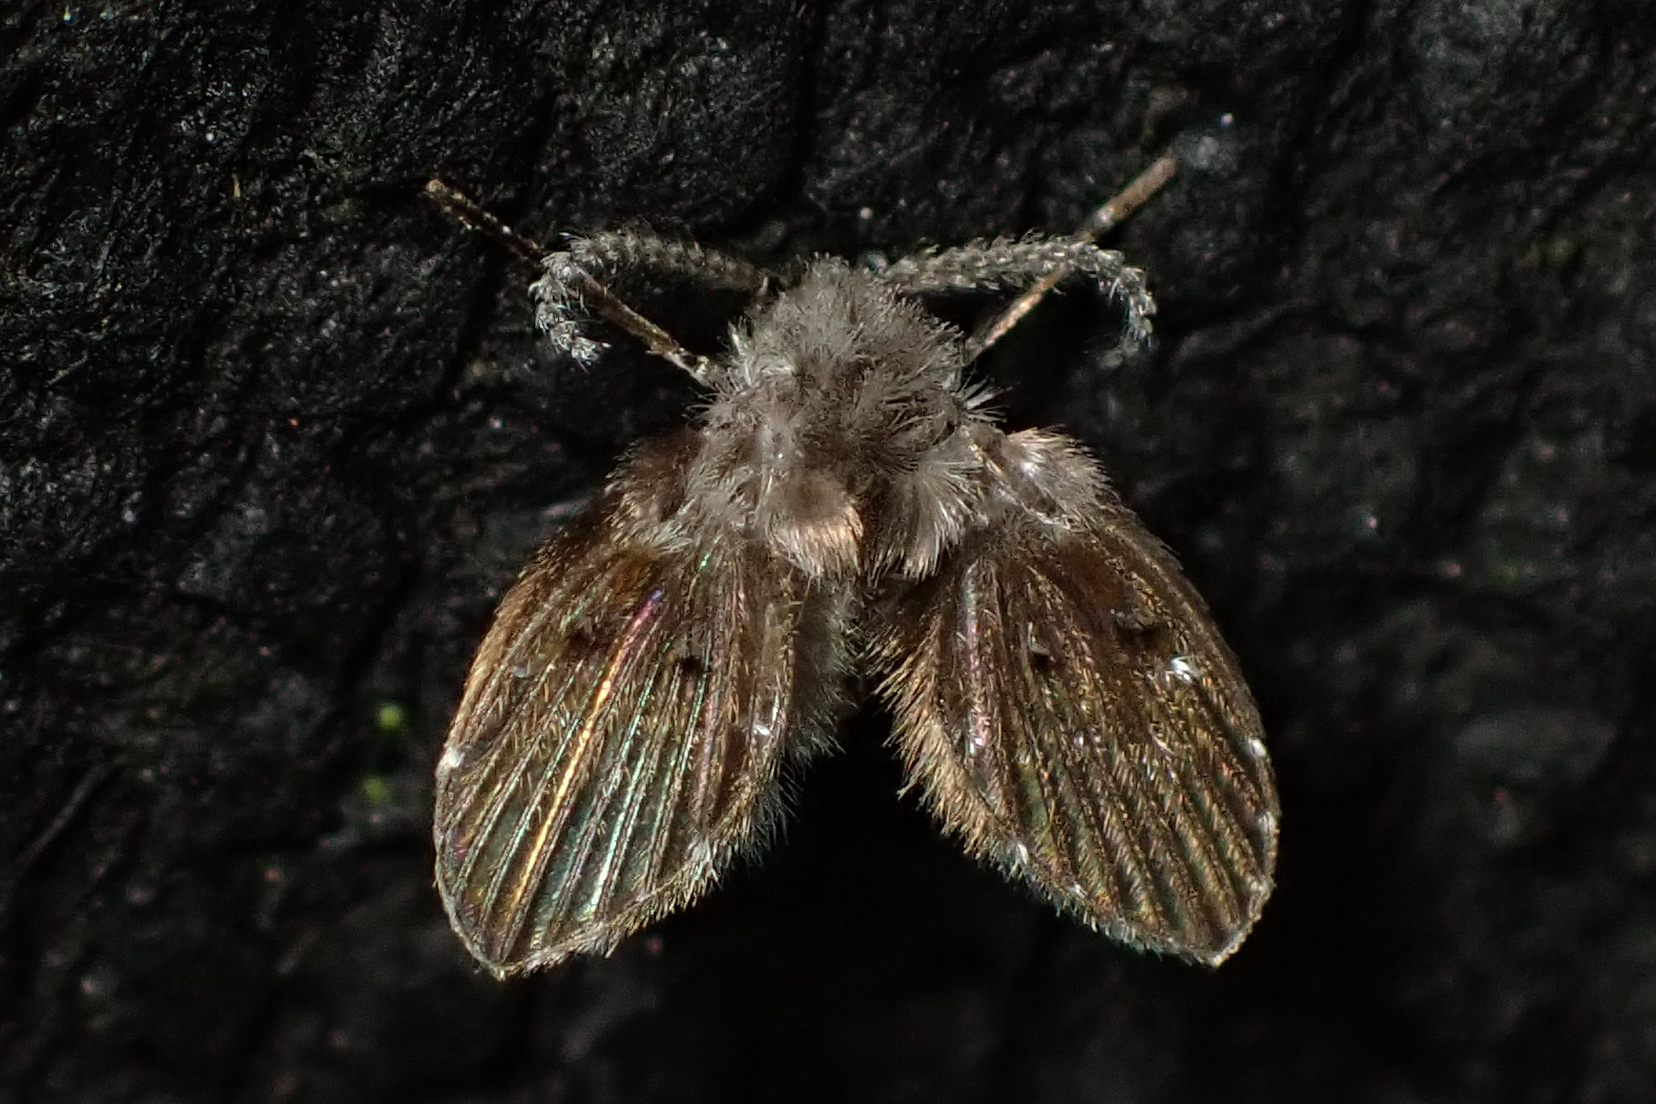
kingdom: Animalia
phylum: Arthropoda
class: Insecta
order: Diptera
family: Psychodidae
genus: Clogmia
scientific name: Clogmia albipunctatus
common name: White-spotted moth fly
